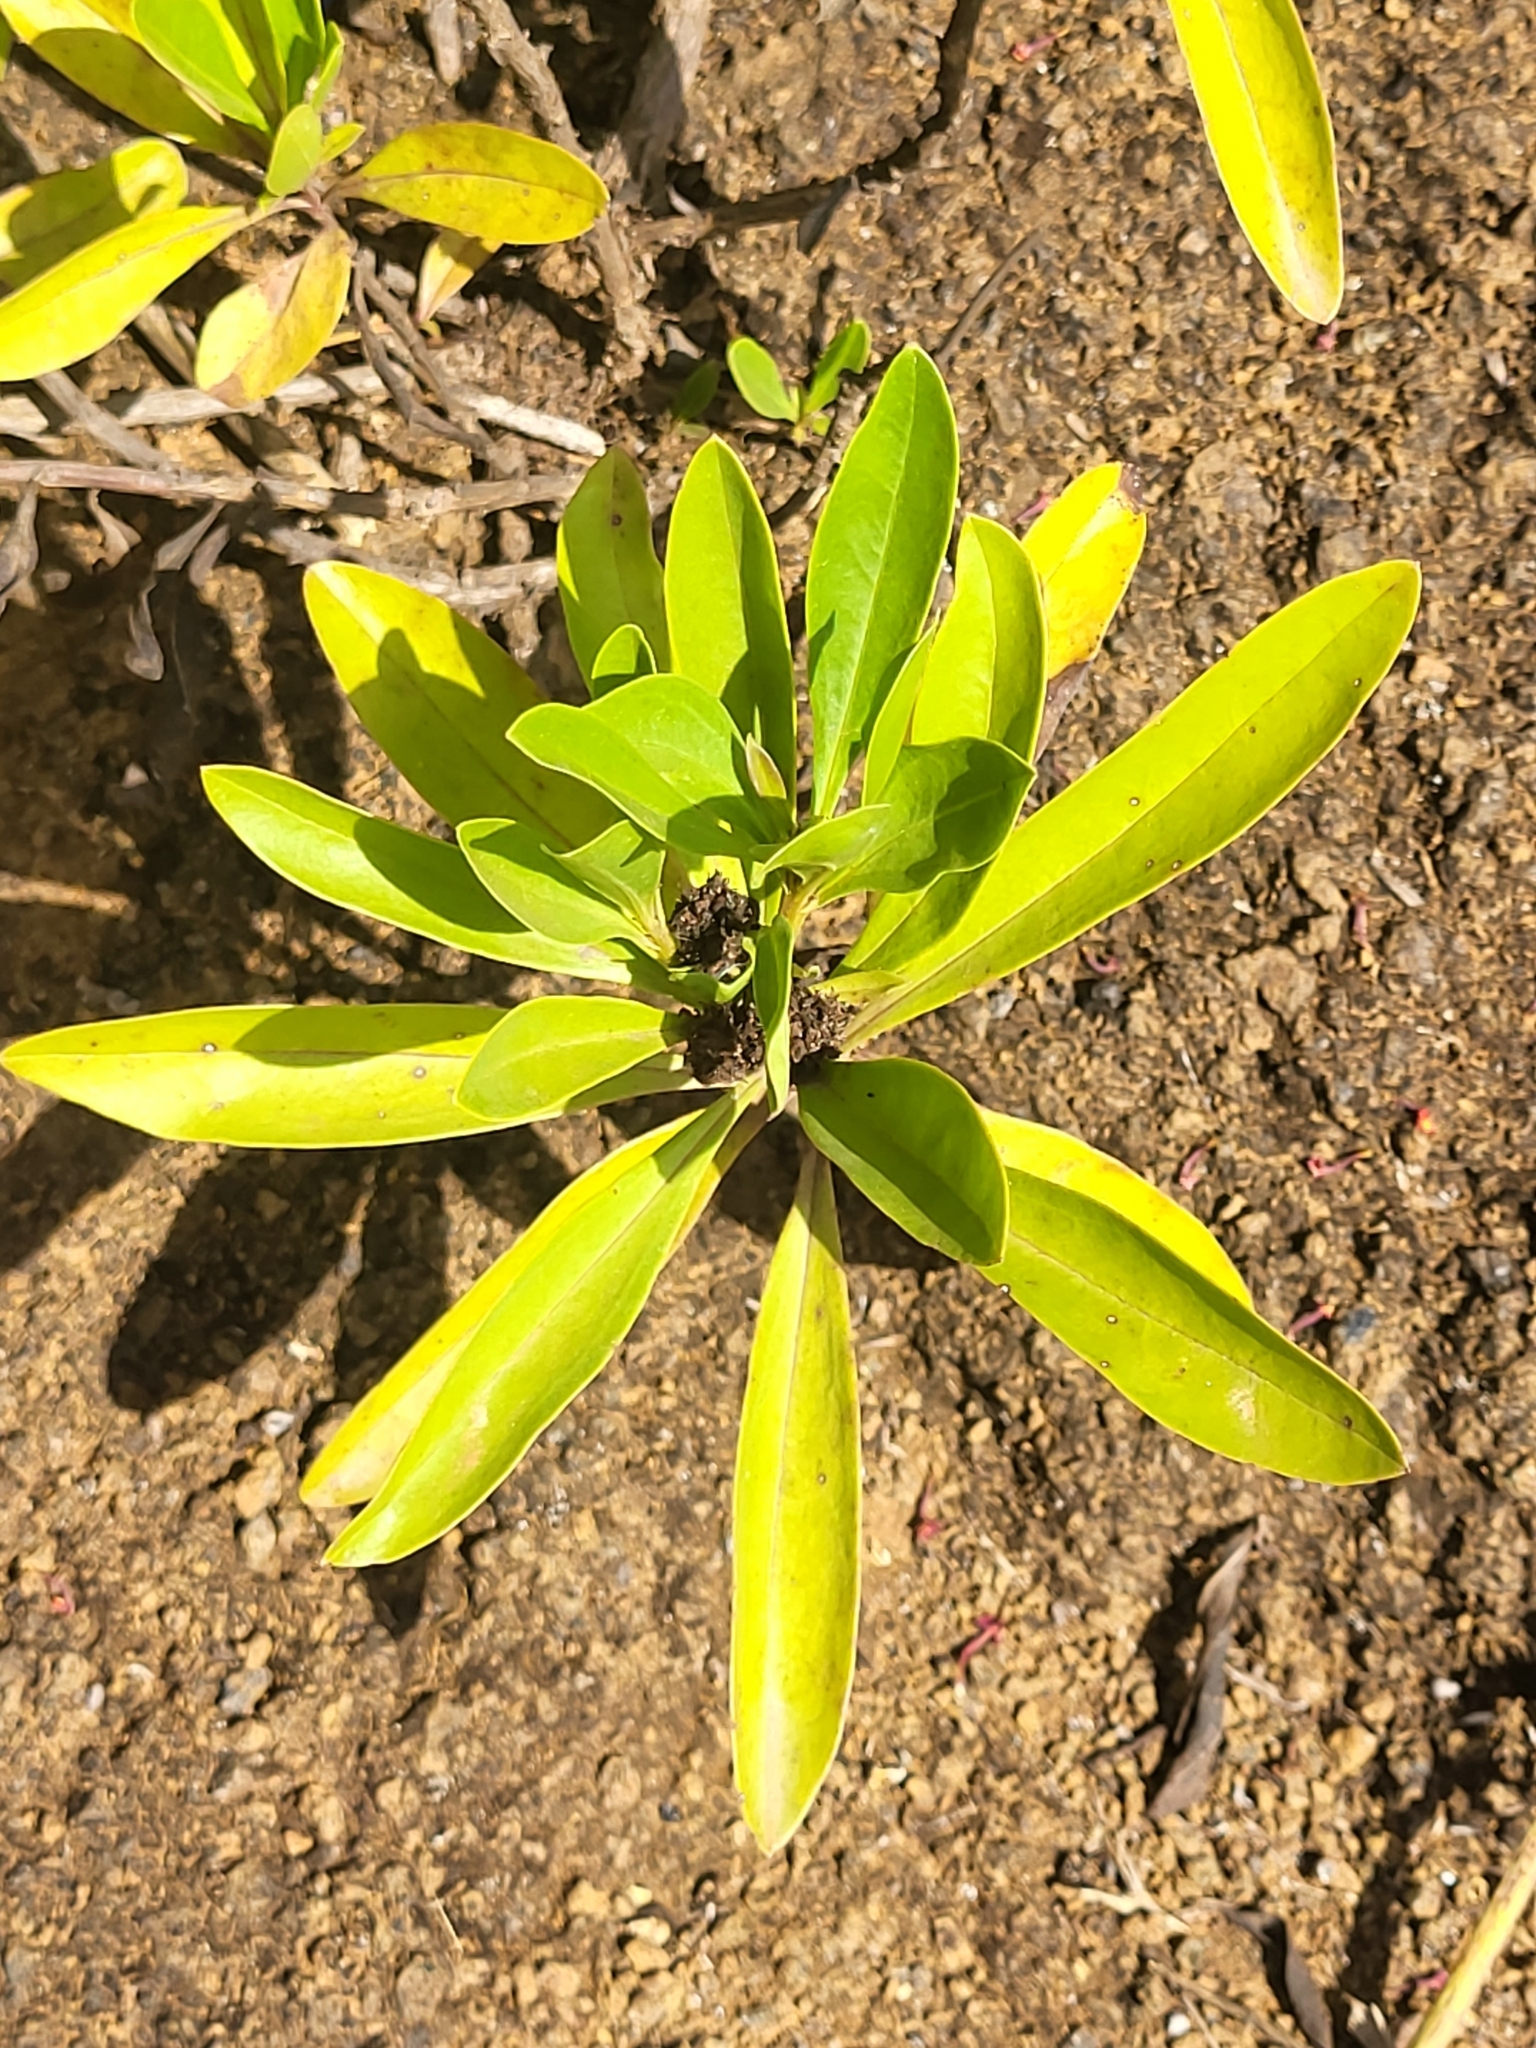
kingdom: Plantae
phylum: Tracheophyta
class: Magnoliopsida
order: Lamiales
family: Plantaginaceae
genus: Globularia
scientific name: Globularia amygdalifolia
